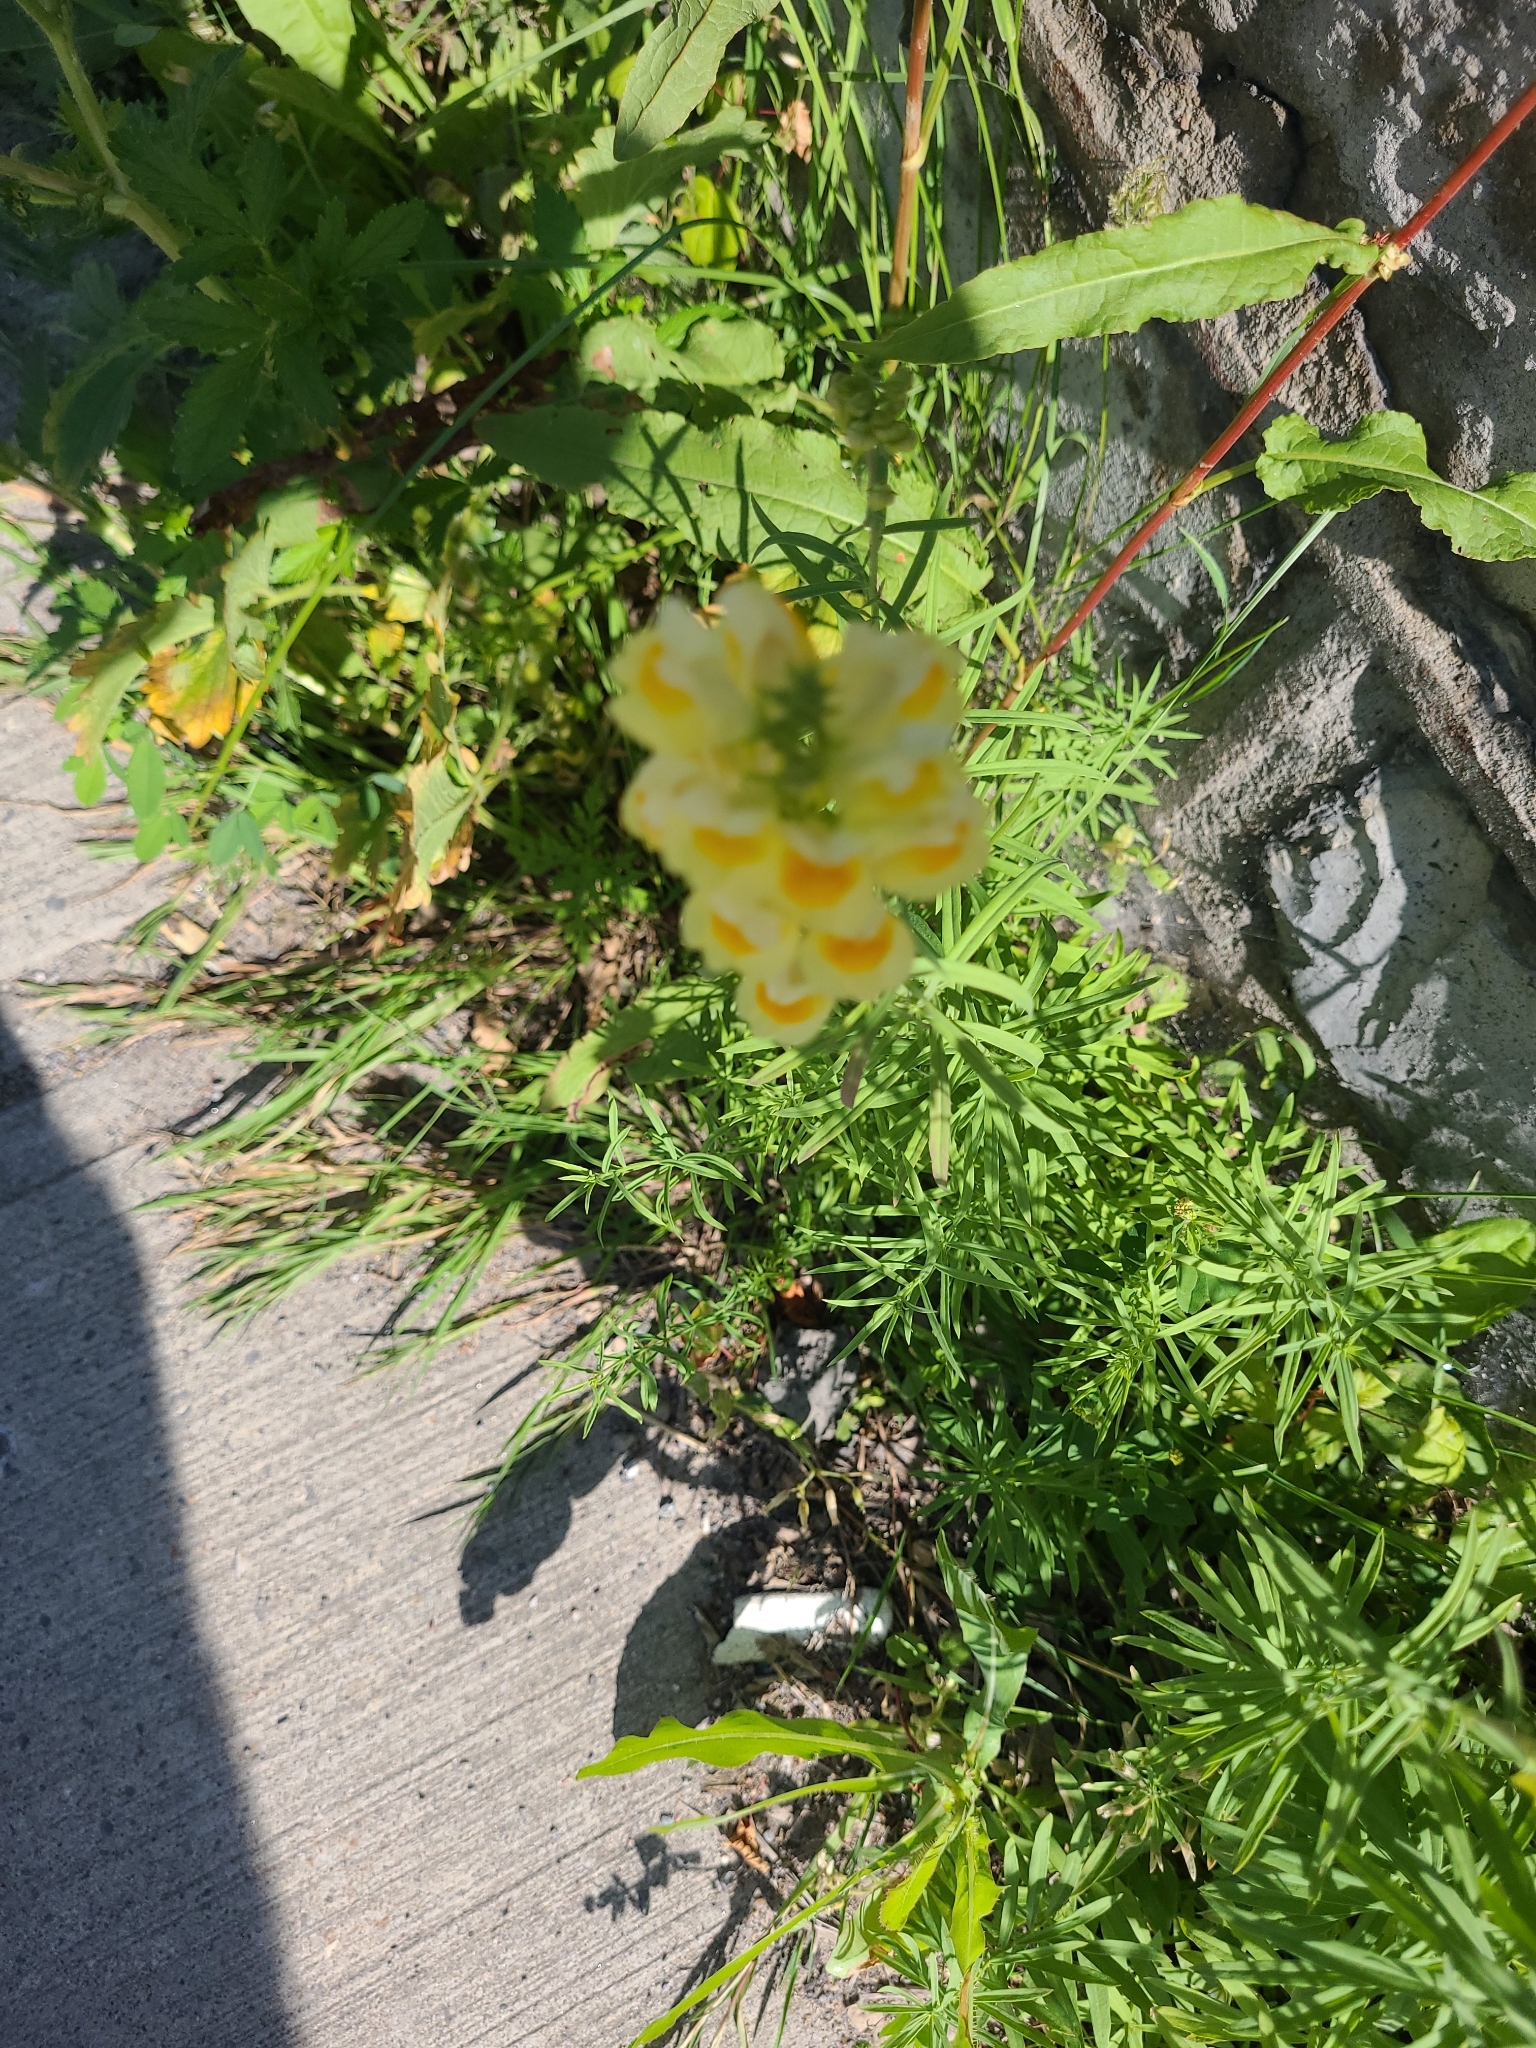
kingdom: Plantae
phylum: Tracheophyta
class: Magnoliopsida
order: Lamiales
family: Plantaginaceae
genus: Linaria
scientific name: Linaria vulgaris
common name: Butter and eggs
